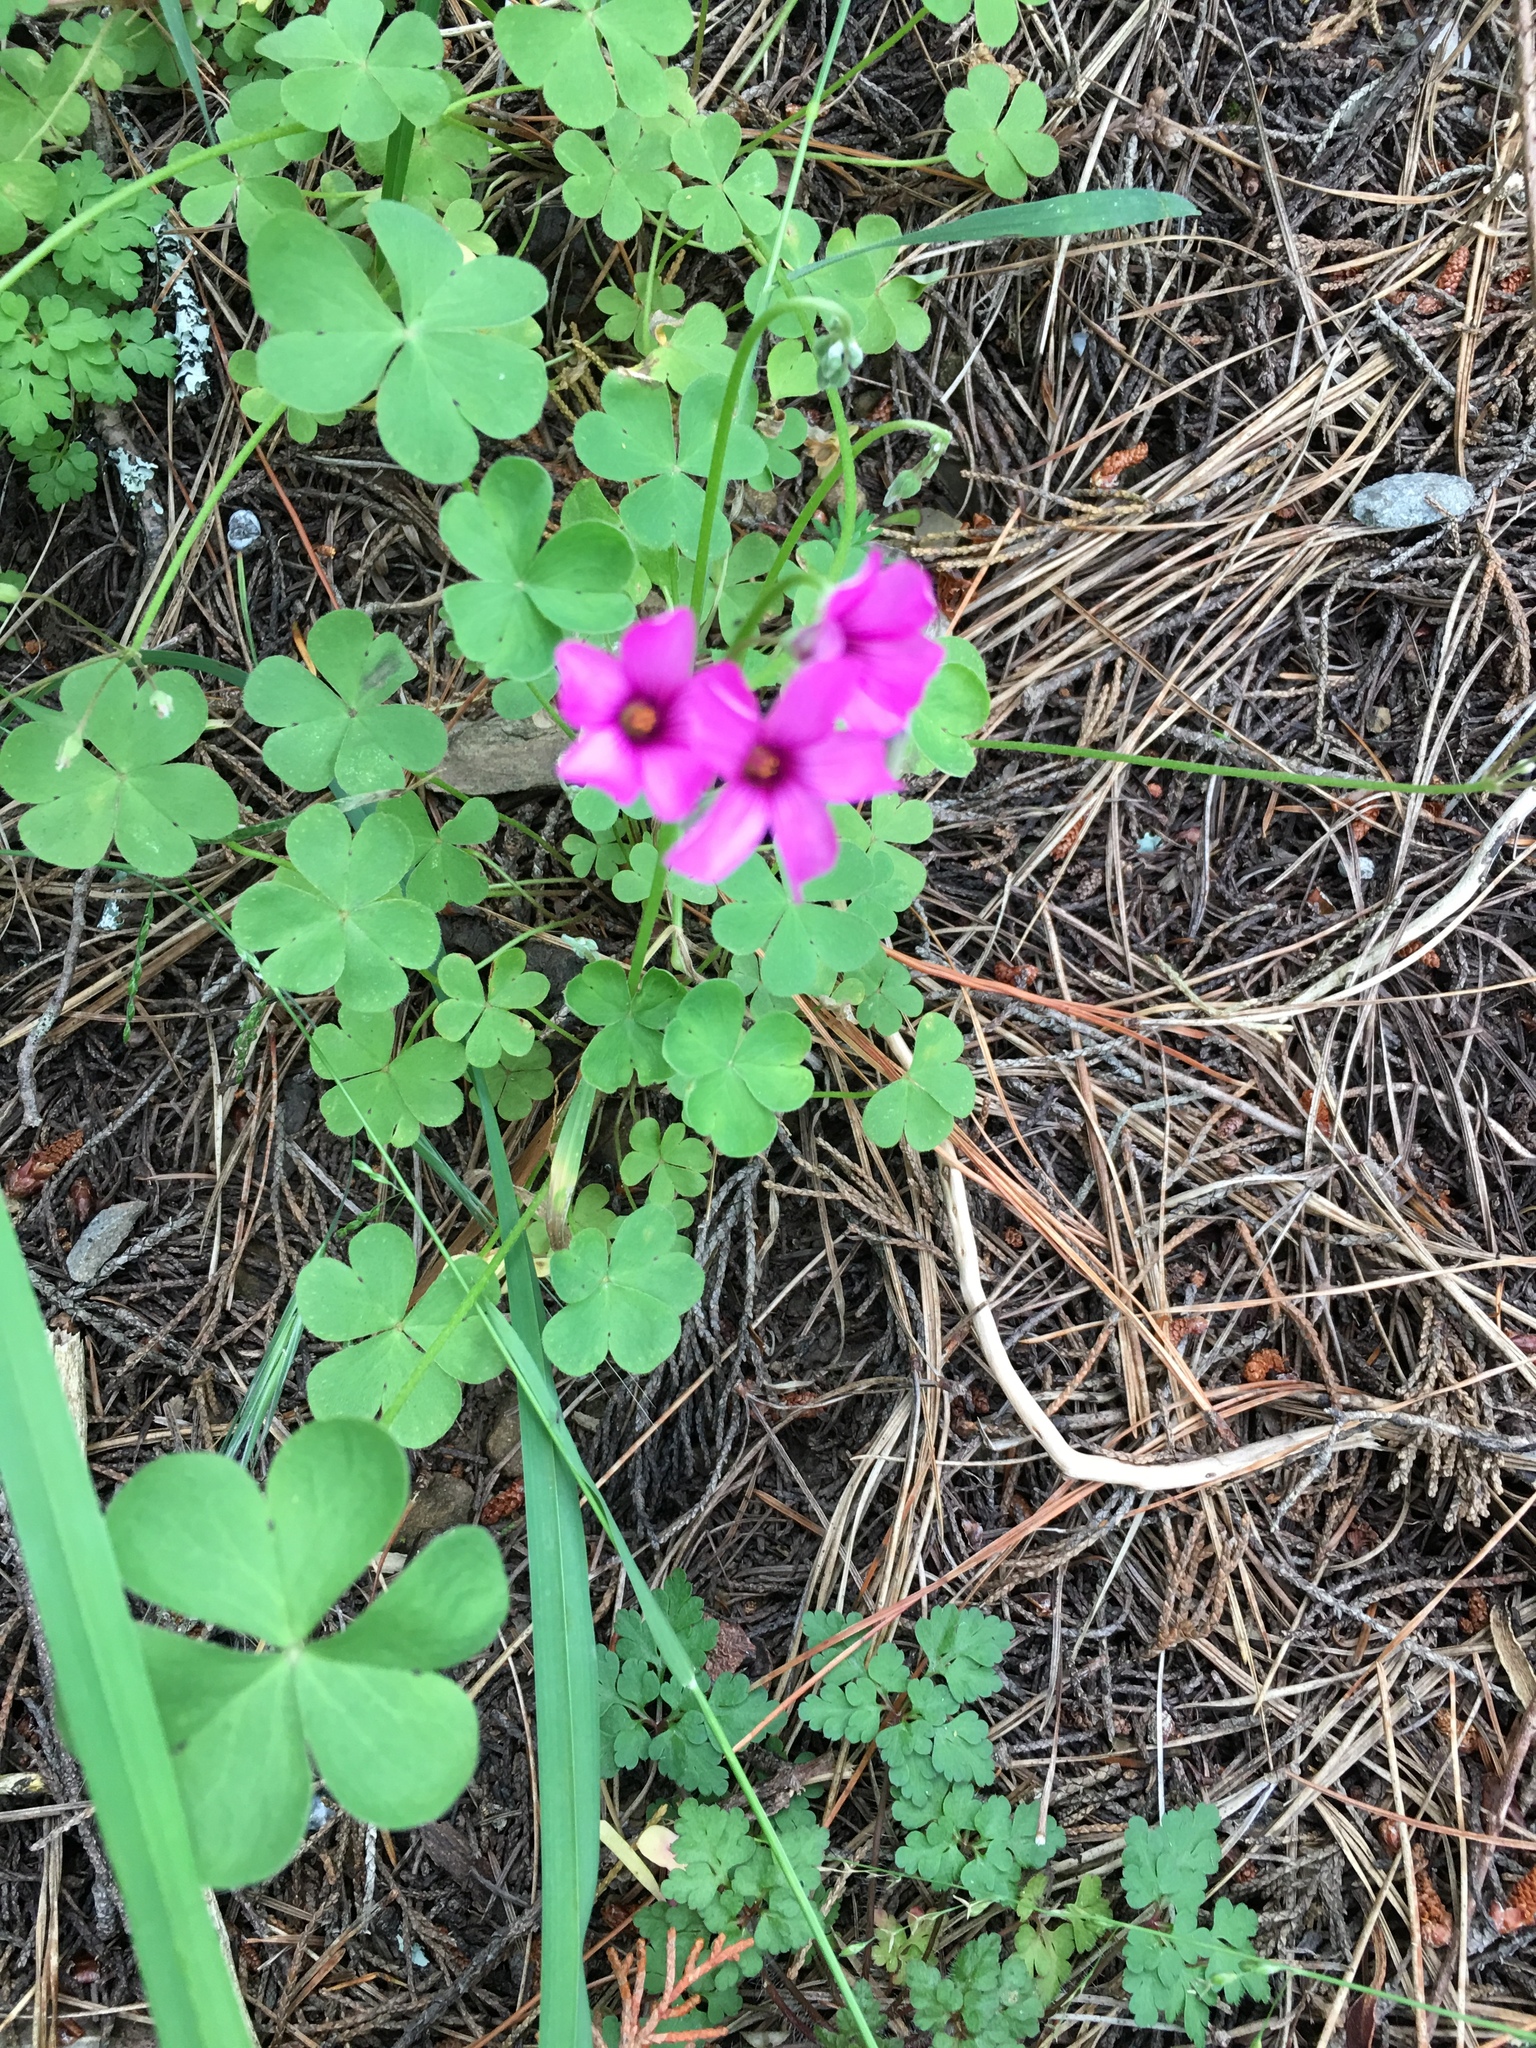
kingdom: Plantae
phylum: Tracheophyta
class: Magnoliopsida
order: Oxalidales
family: Oxalidaceae
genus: Oxalis
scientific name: Oxalis articulata
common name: Pink-sorrel
